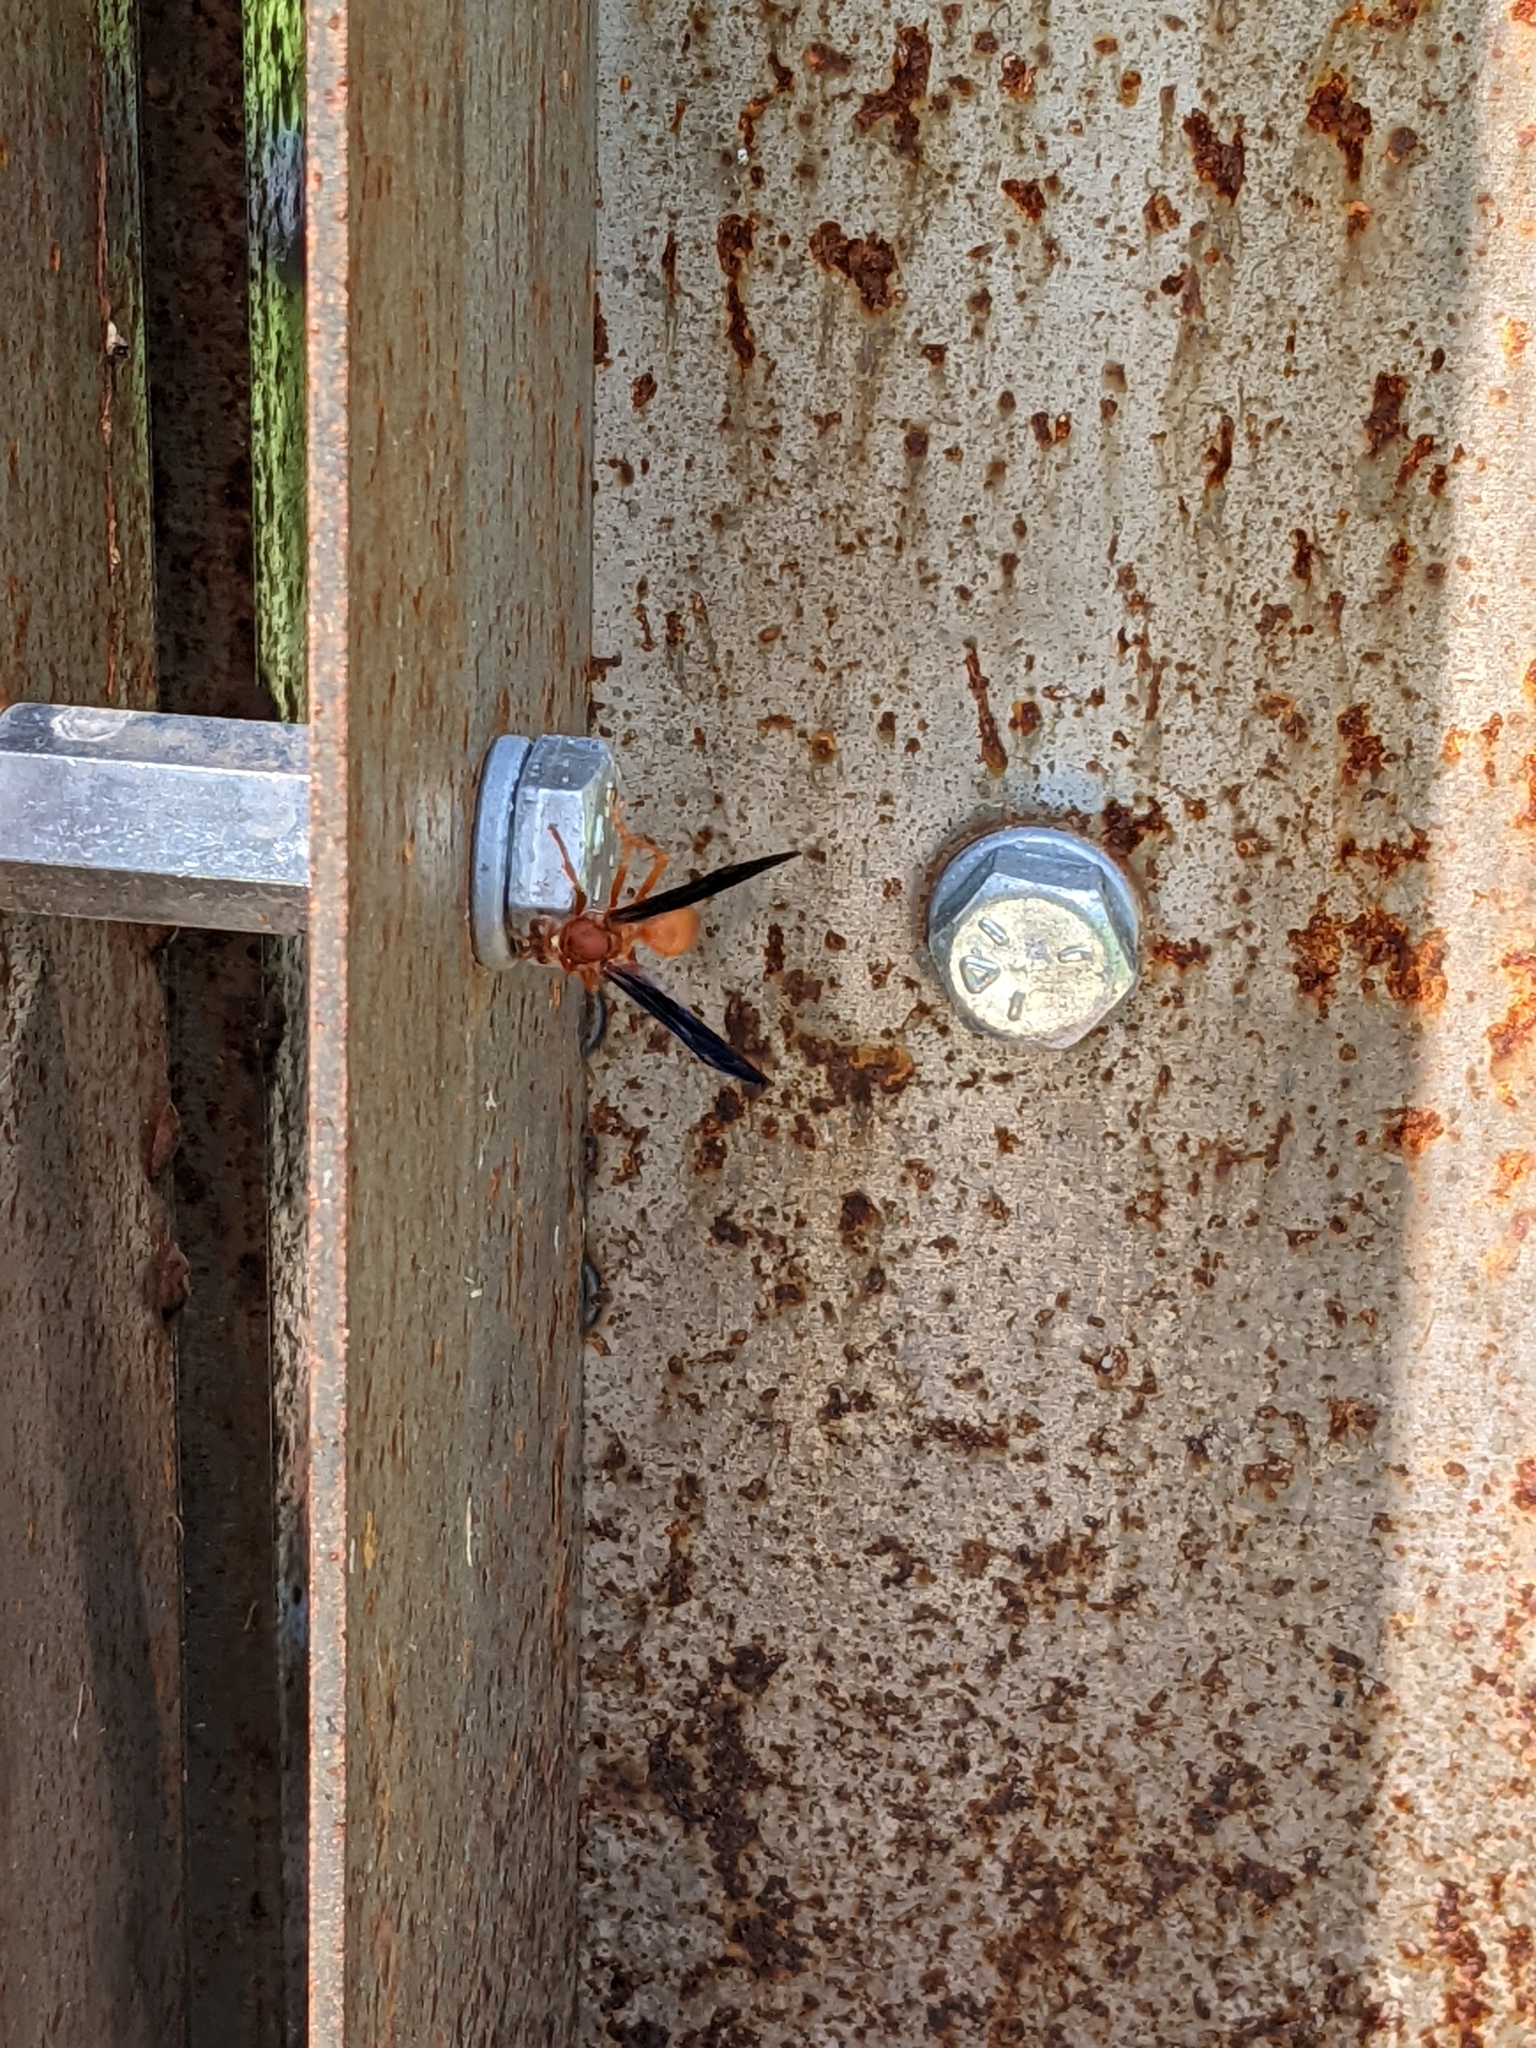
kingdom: Animalia
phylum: Arthropoda
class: Insecta
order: Hymenoptera
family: Eumenidae
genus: Polistes
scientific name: Polistes carolina
